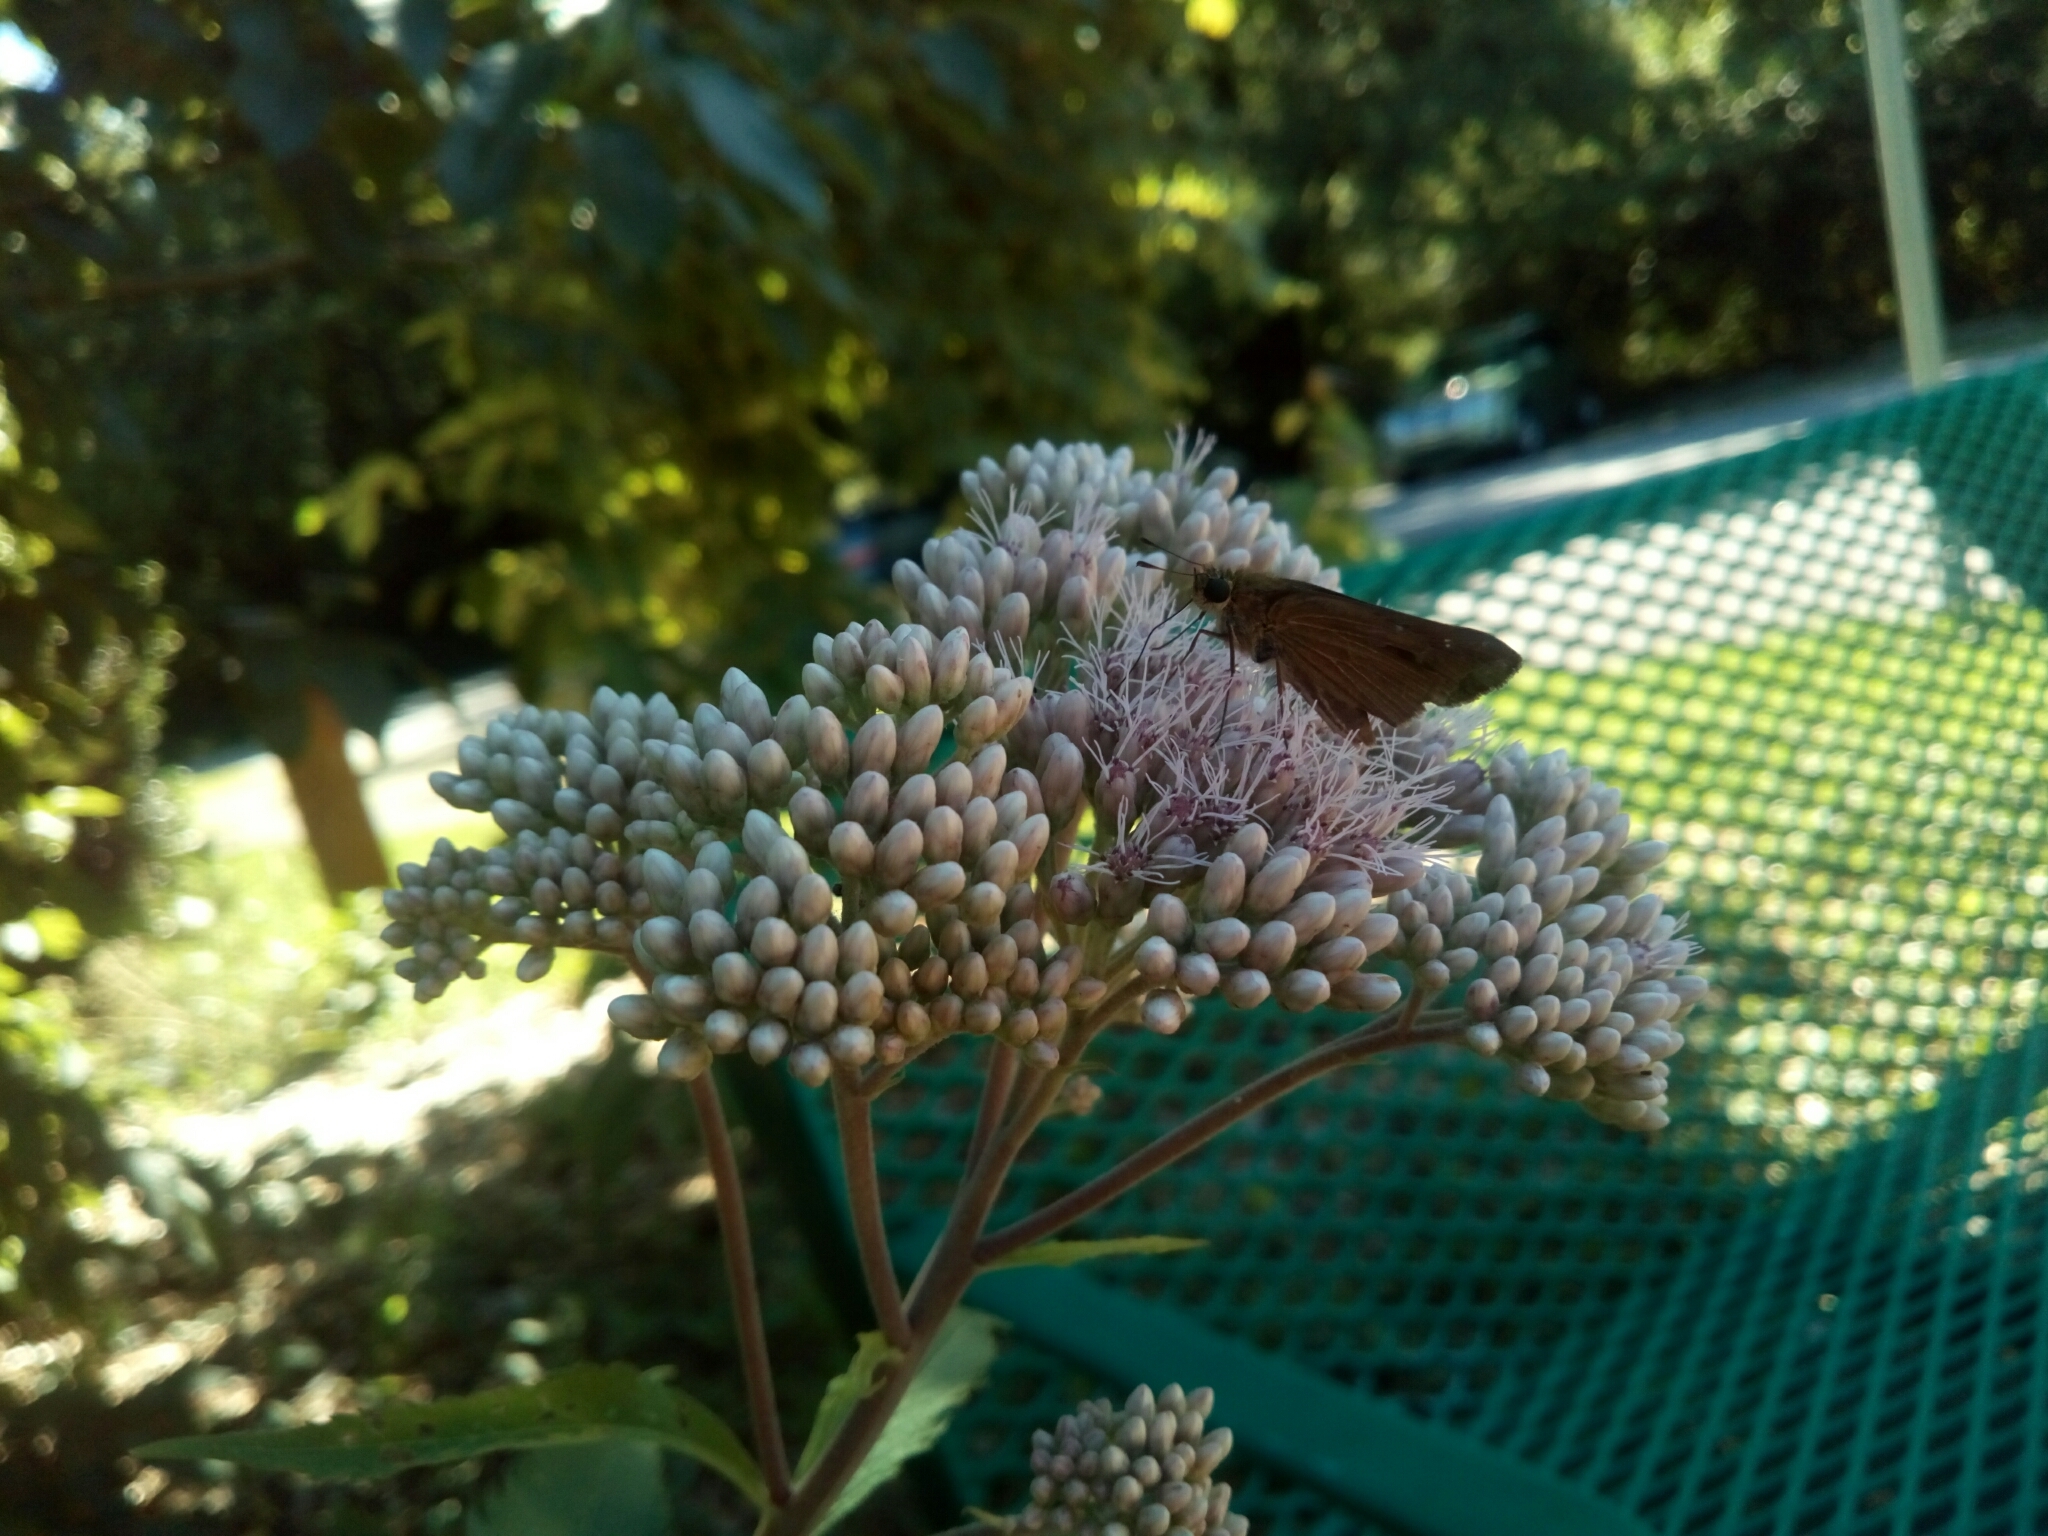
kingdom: Animalia
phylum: Arthropoda
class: Insecta
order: Lepidoptera
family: Hesperiidae
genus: Panoquina
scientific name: Panoquina ocola
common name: Ocola skipper
